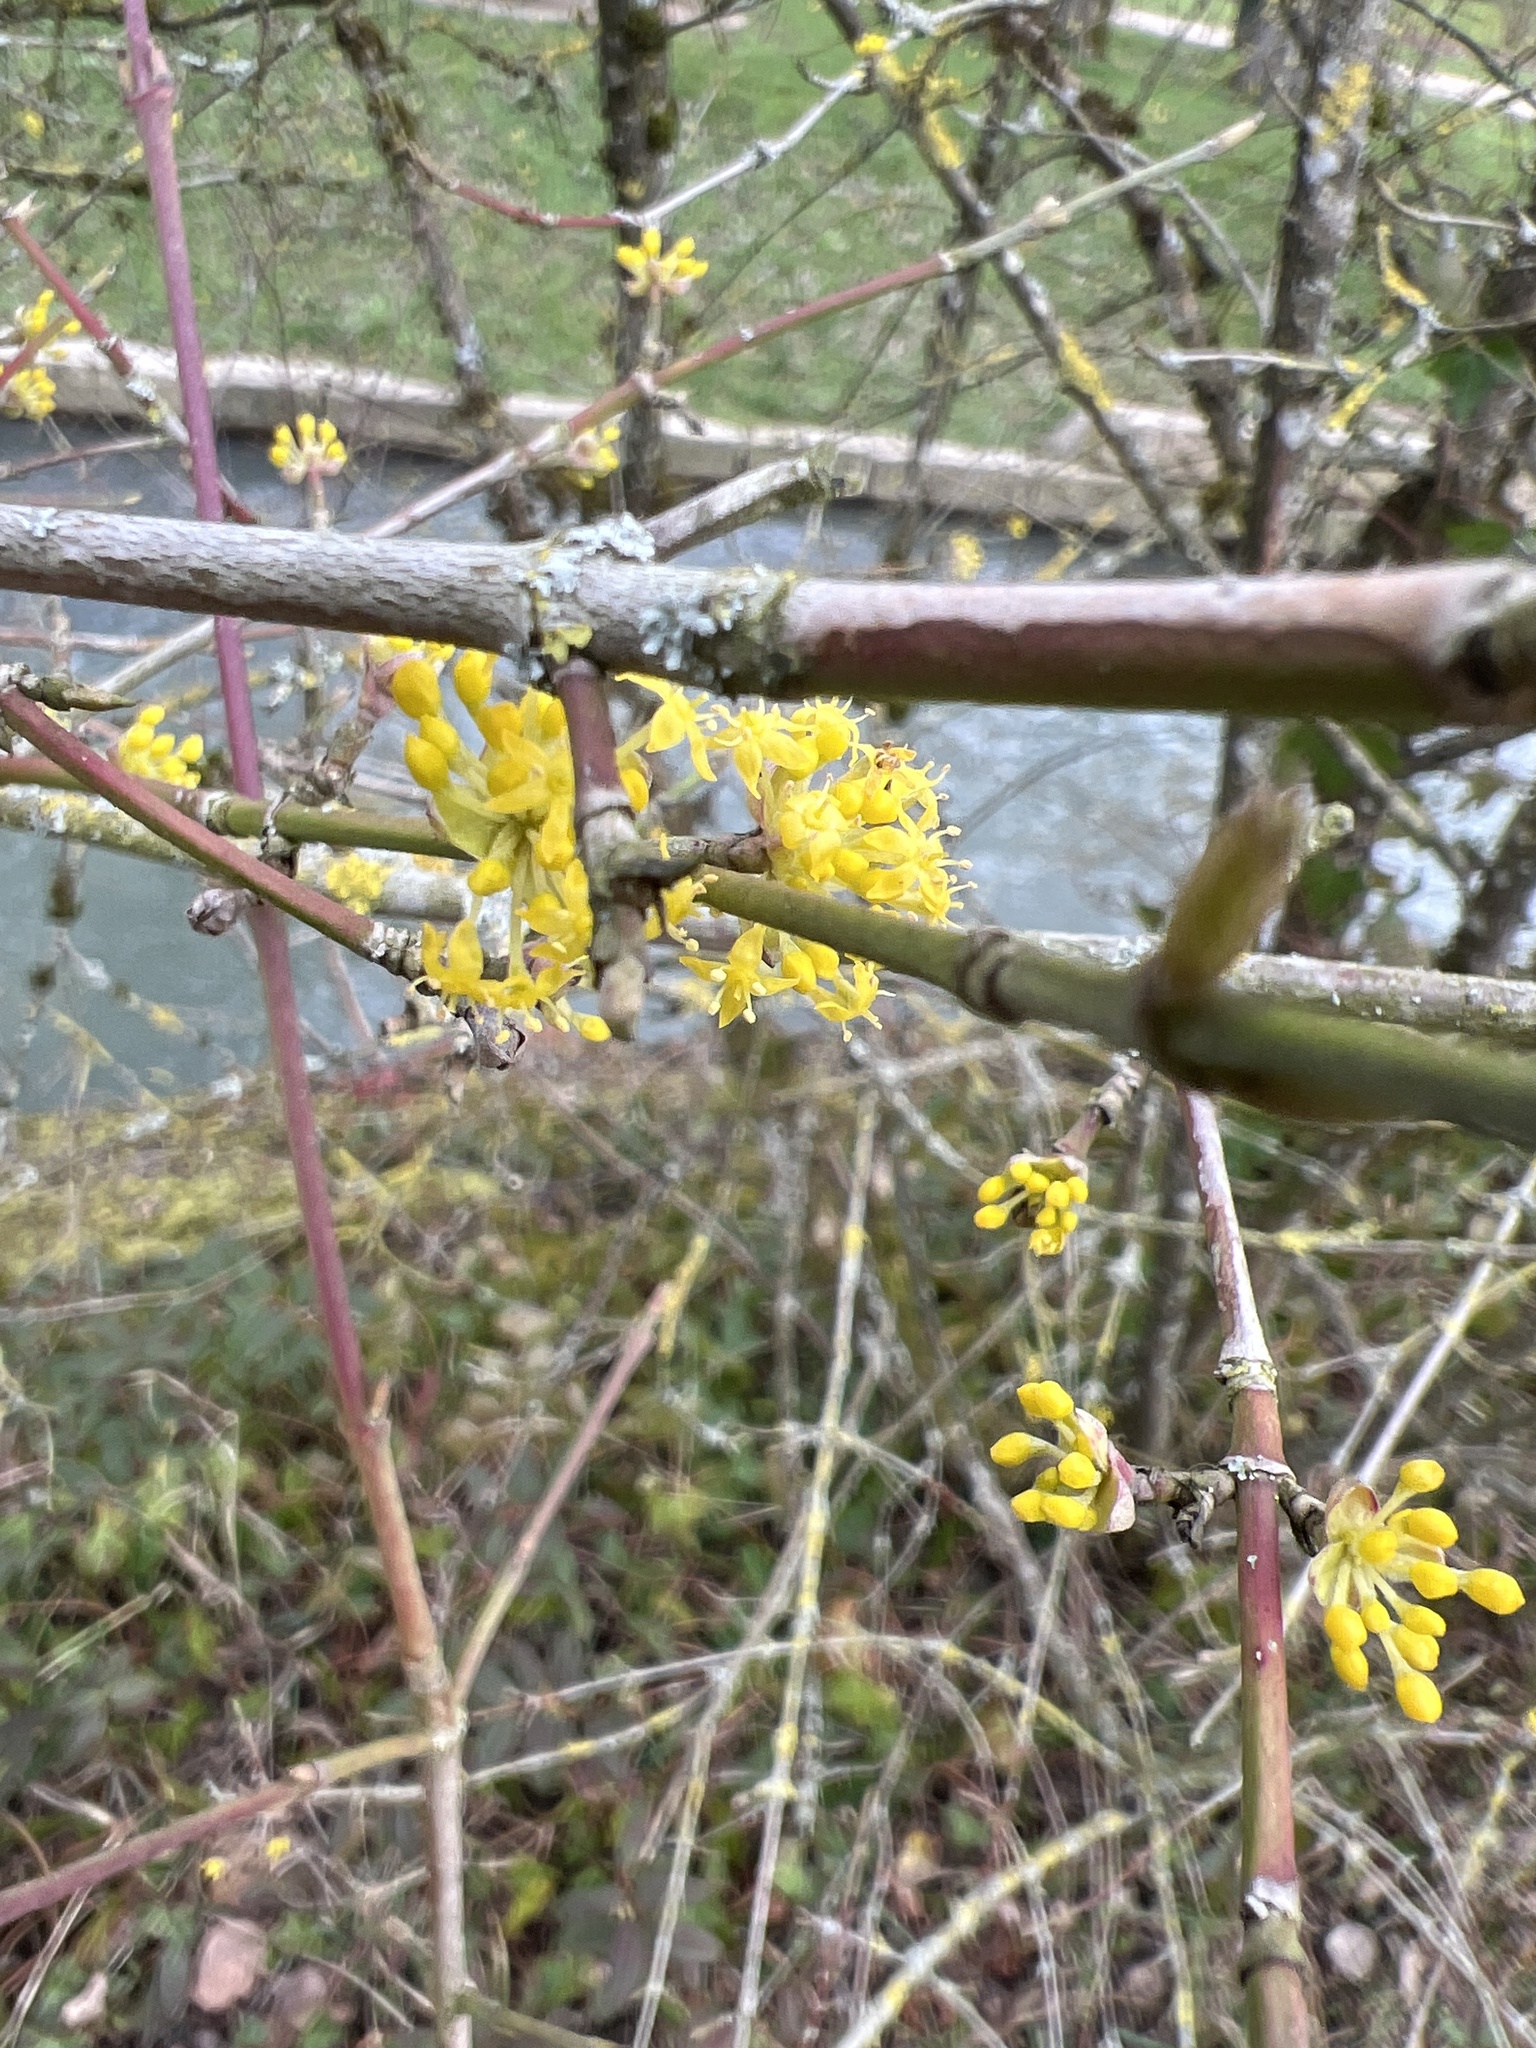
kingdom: Plantae
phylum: Tracheophyta
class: Magnoliopsida
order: Cornales
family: Cornaceae
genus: Cornus
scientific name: Cornus mas
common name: Cornelian-cherry
